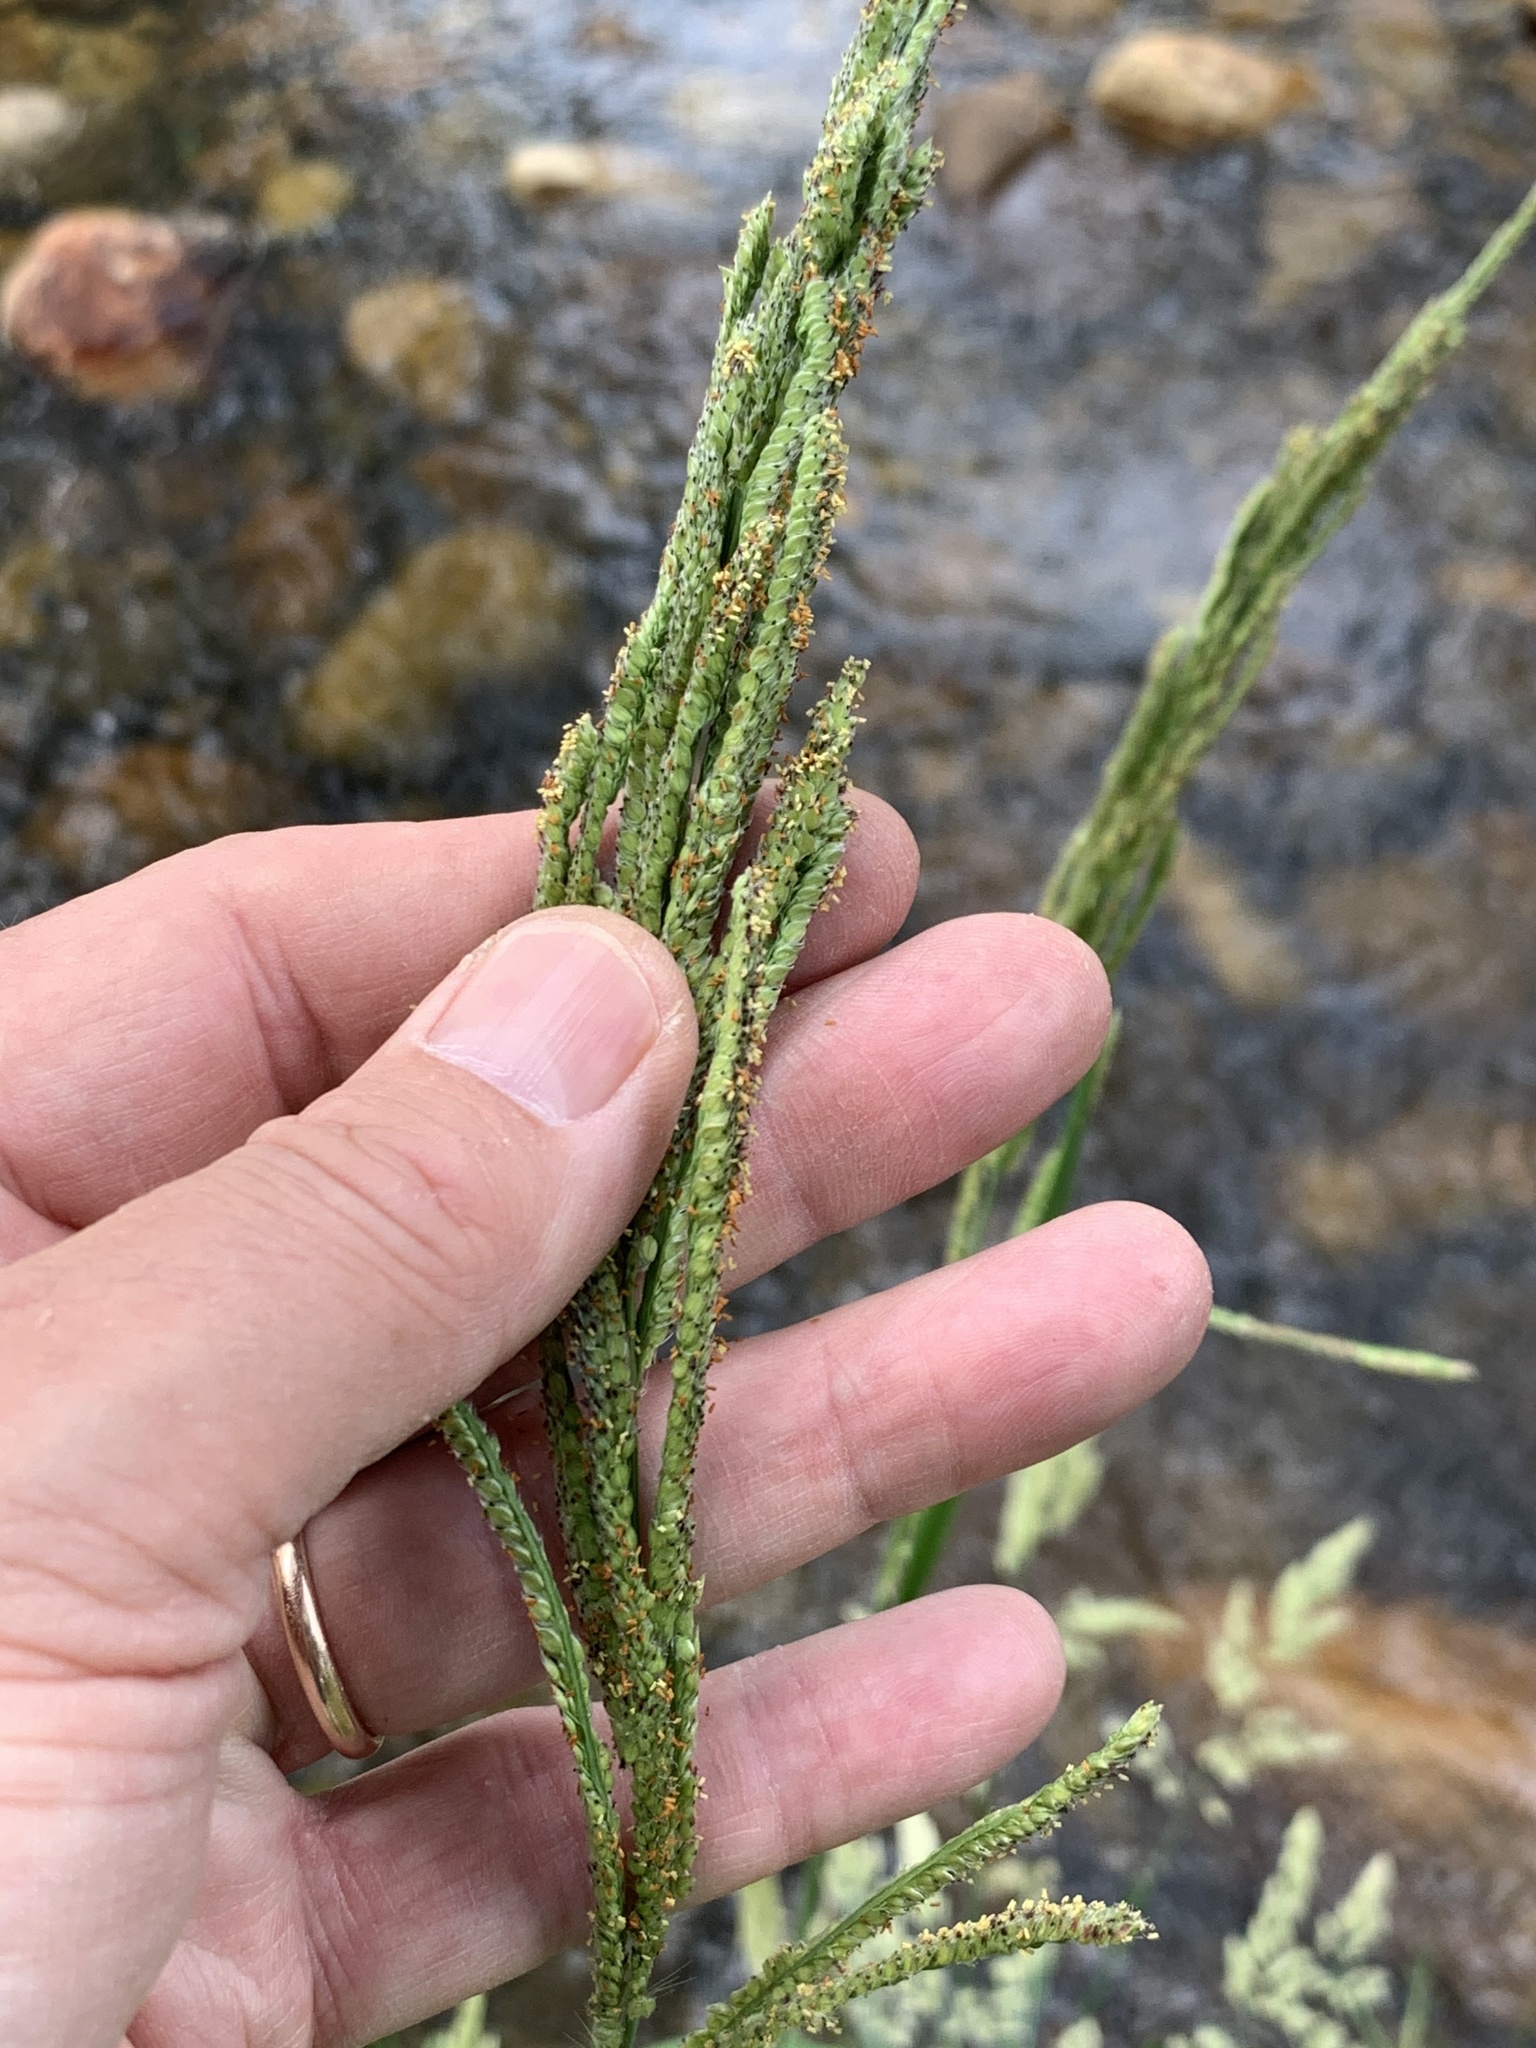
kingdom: Plantae
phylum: Tracheophyta
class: Liliopsida
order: Poales
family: Poaceae
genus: Paspalum
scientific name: Paspalum urvillei
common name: Vasey's grass
